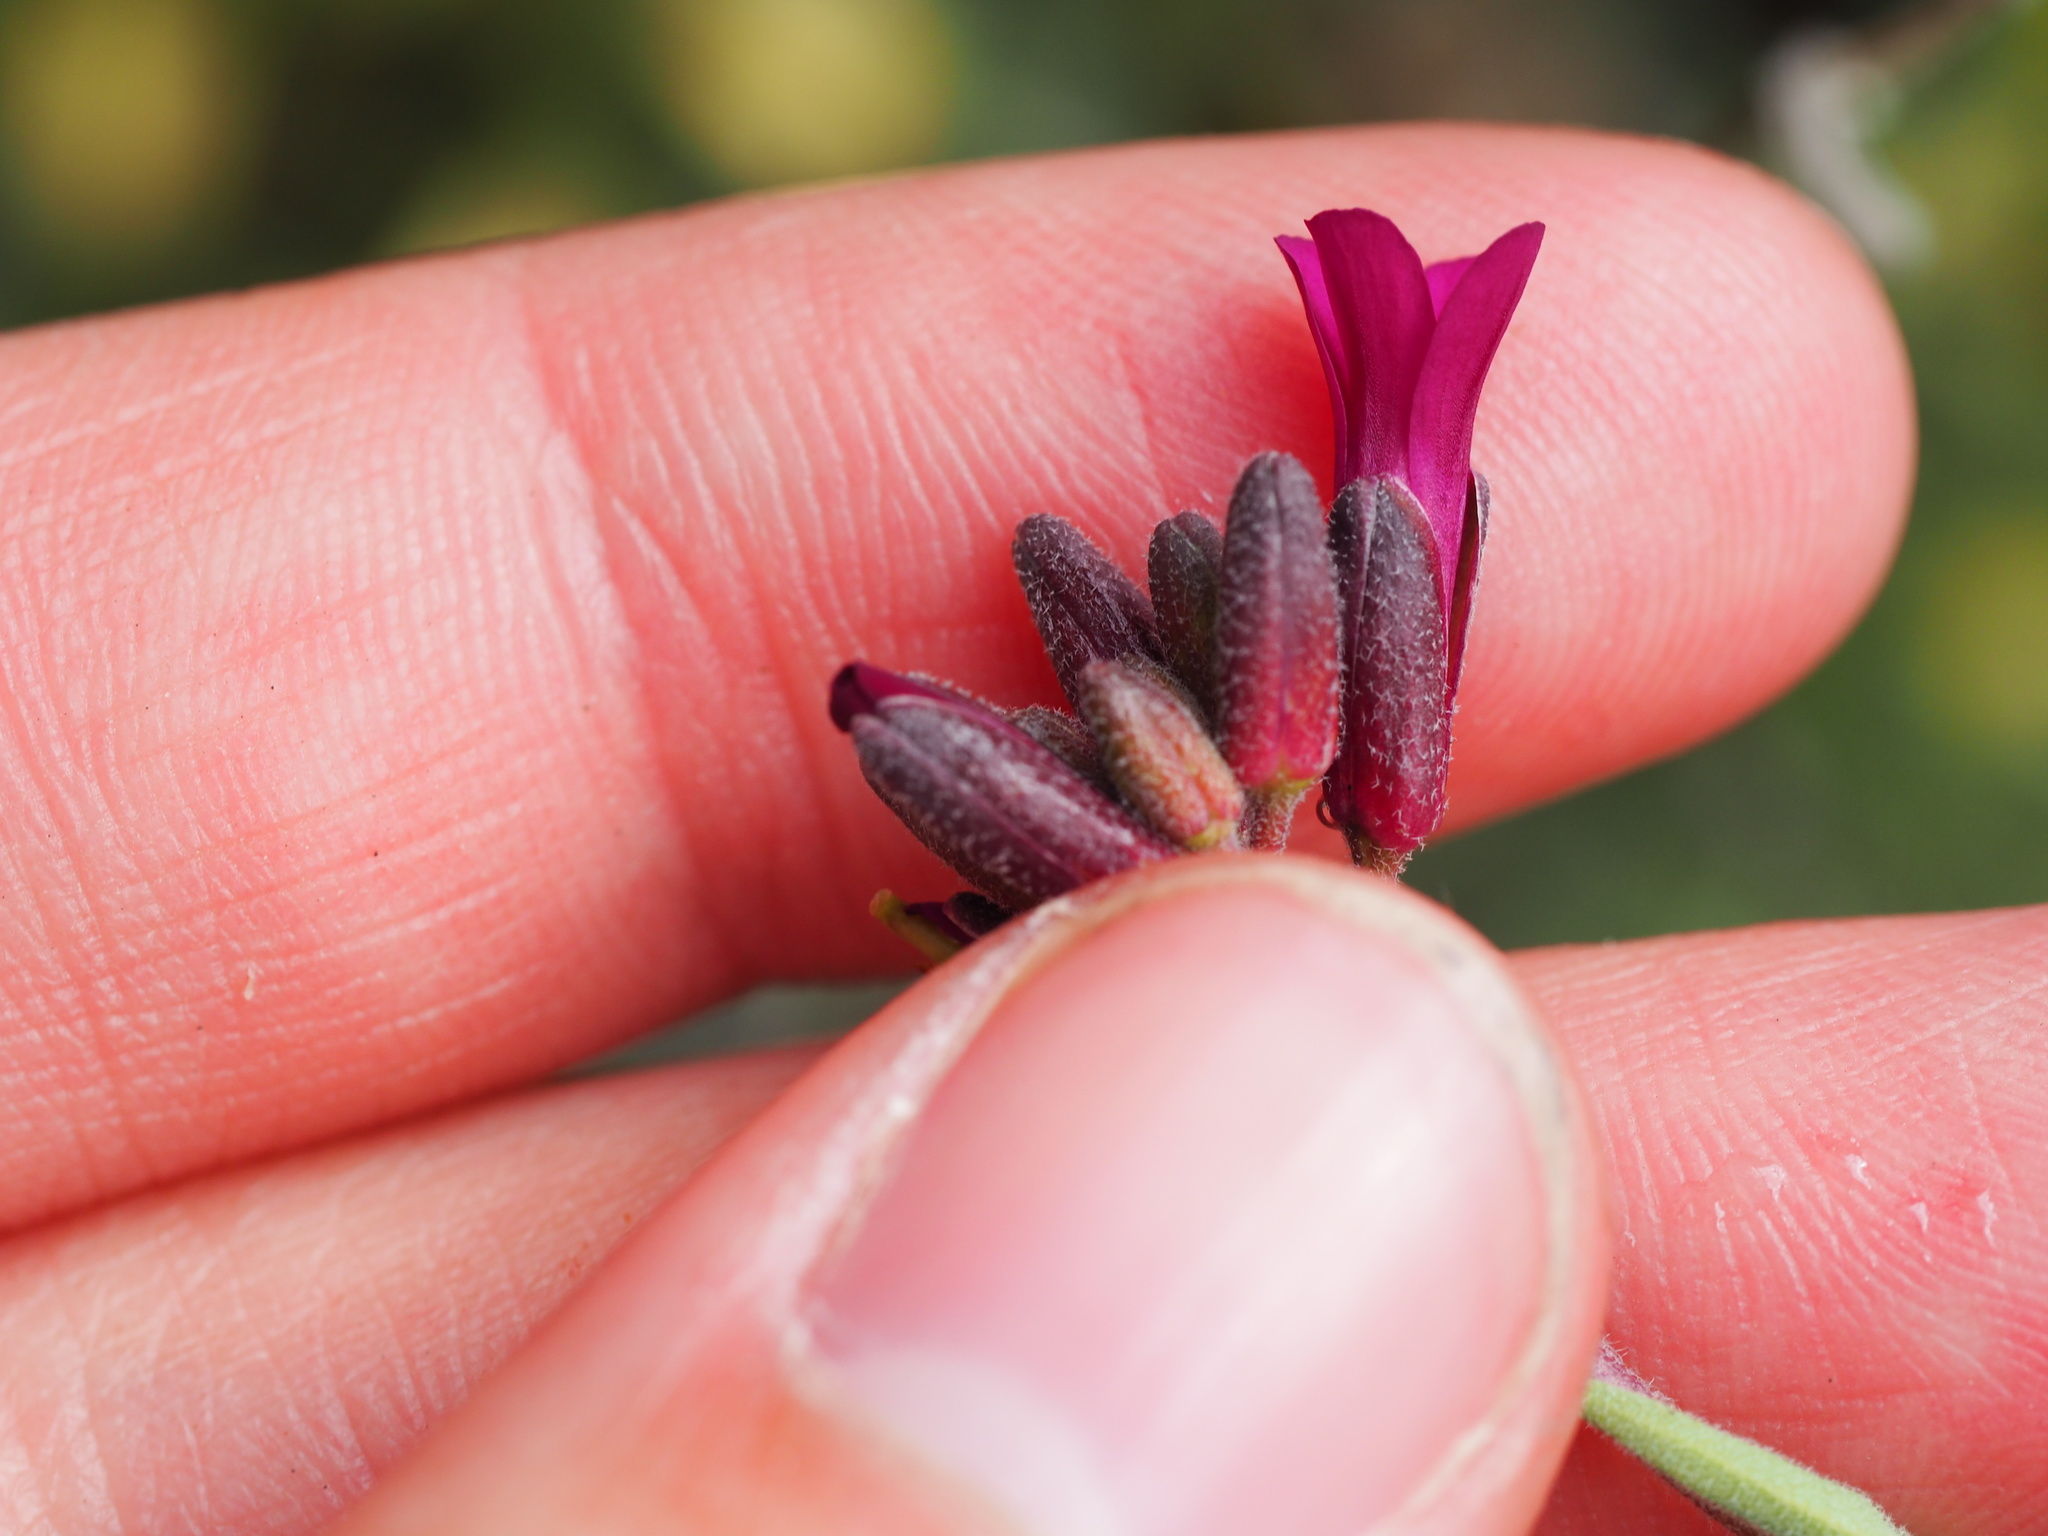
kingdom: Plantae
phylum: Tracheophyta
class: Magnoliopsida
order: Brassicales
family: Brassicaceae
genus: Boechera
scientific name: Boechera arcuata
